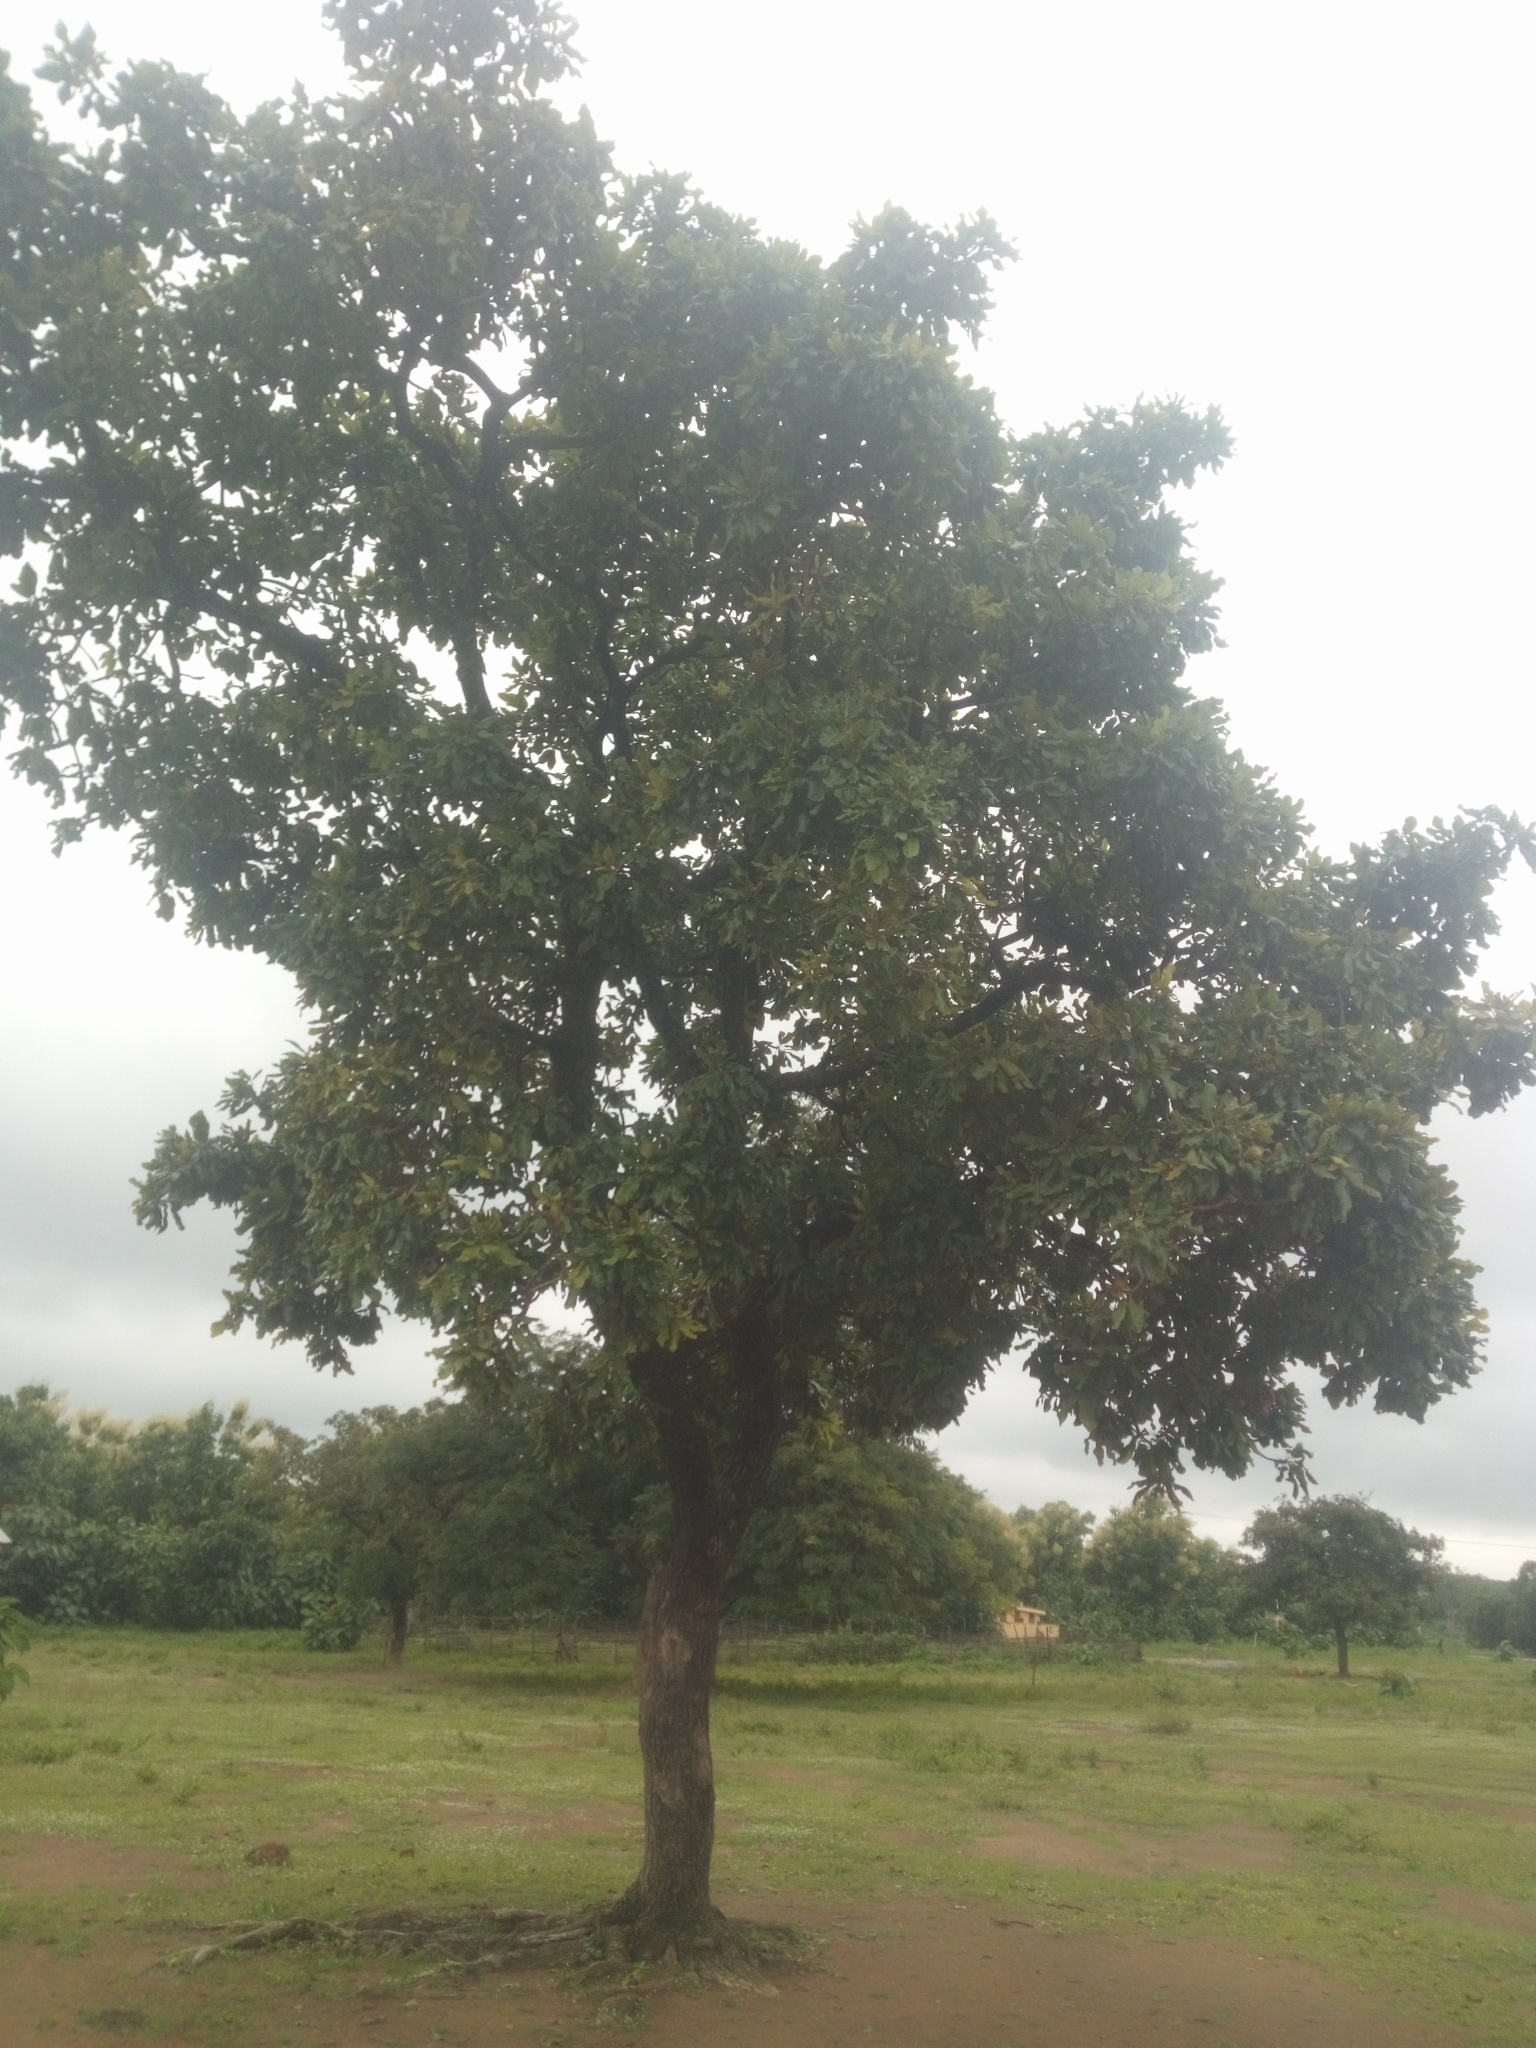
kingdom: Plantae
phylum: Tracheophyta
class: Magnoliopsida
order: Ericales
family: Sapotaceae
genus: Vitellaria
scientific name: Vitellaria paradoxa
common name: Shea butter tree
